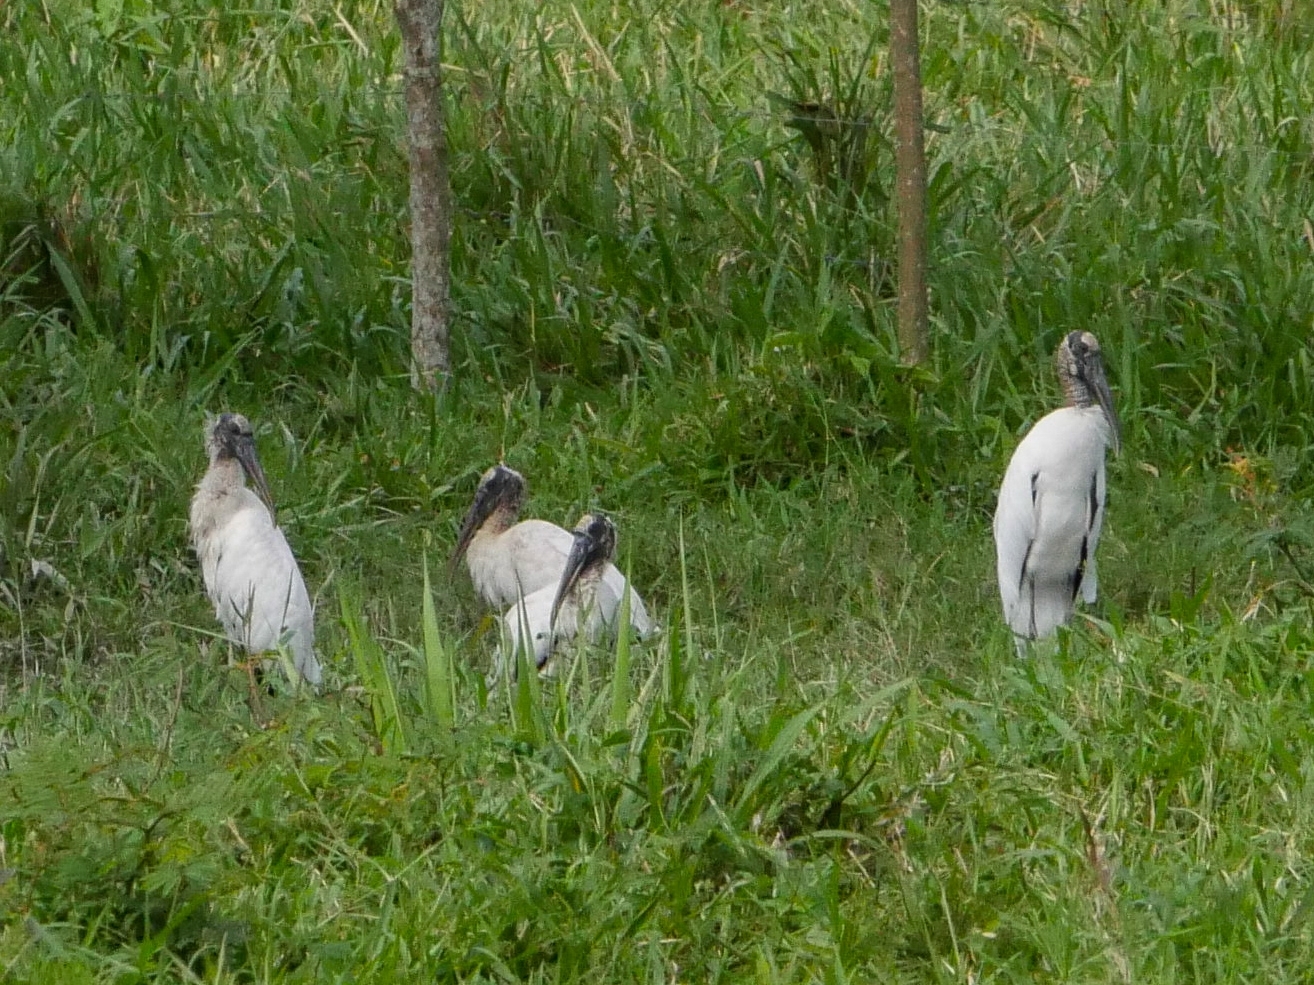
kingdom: Animalia
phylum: Chordata
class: Aves
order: Ciconiiformes
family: Ciconiidae
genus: Mycteria
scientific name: Mycteria americana
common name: Wood stork
